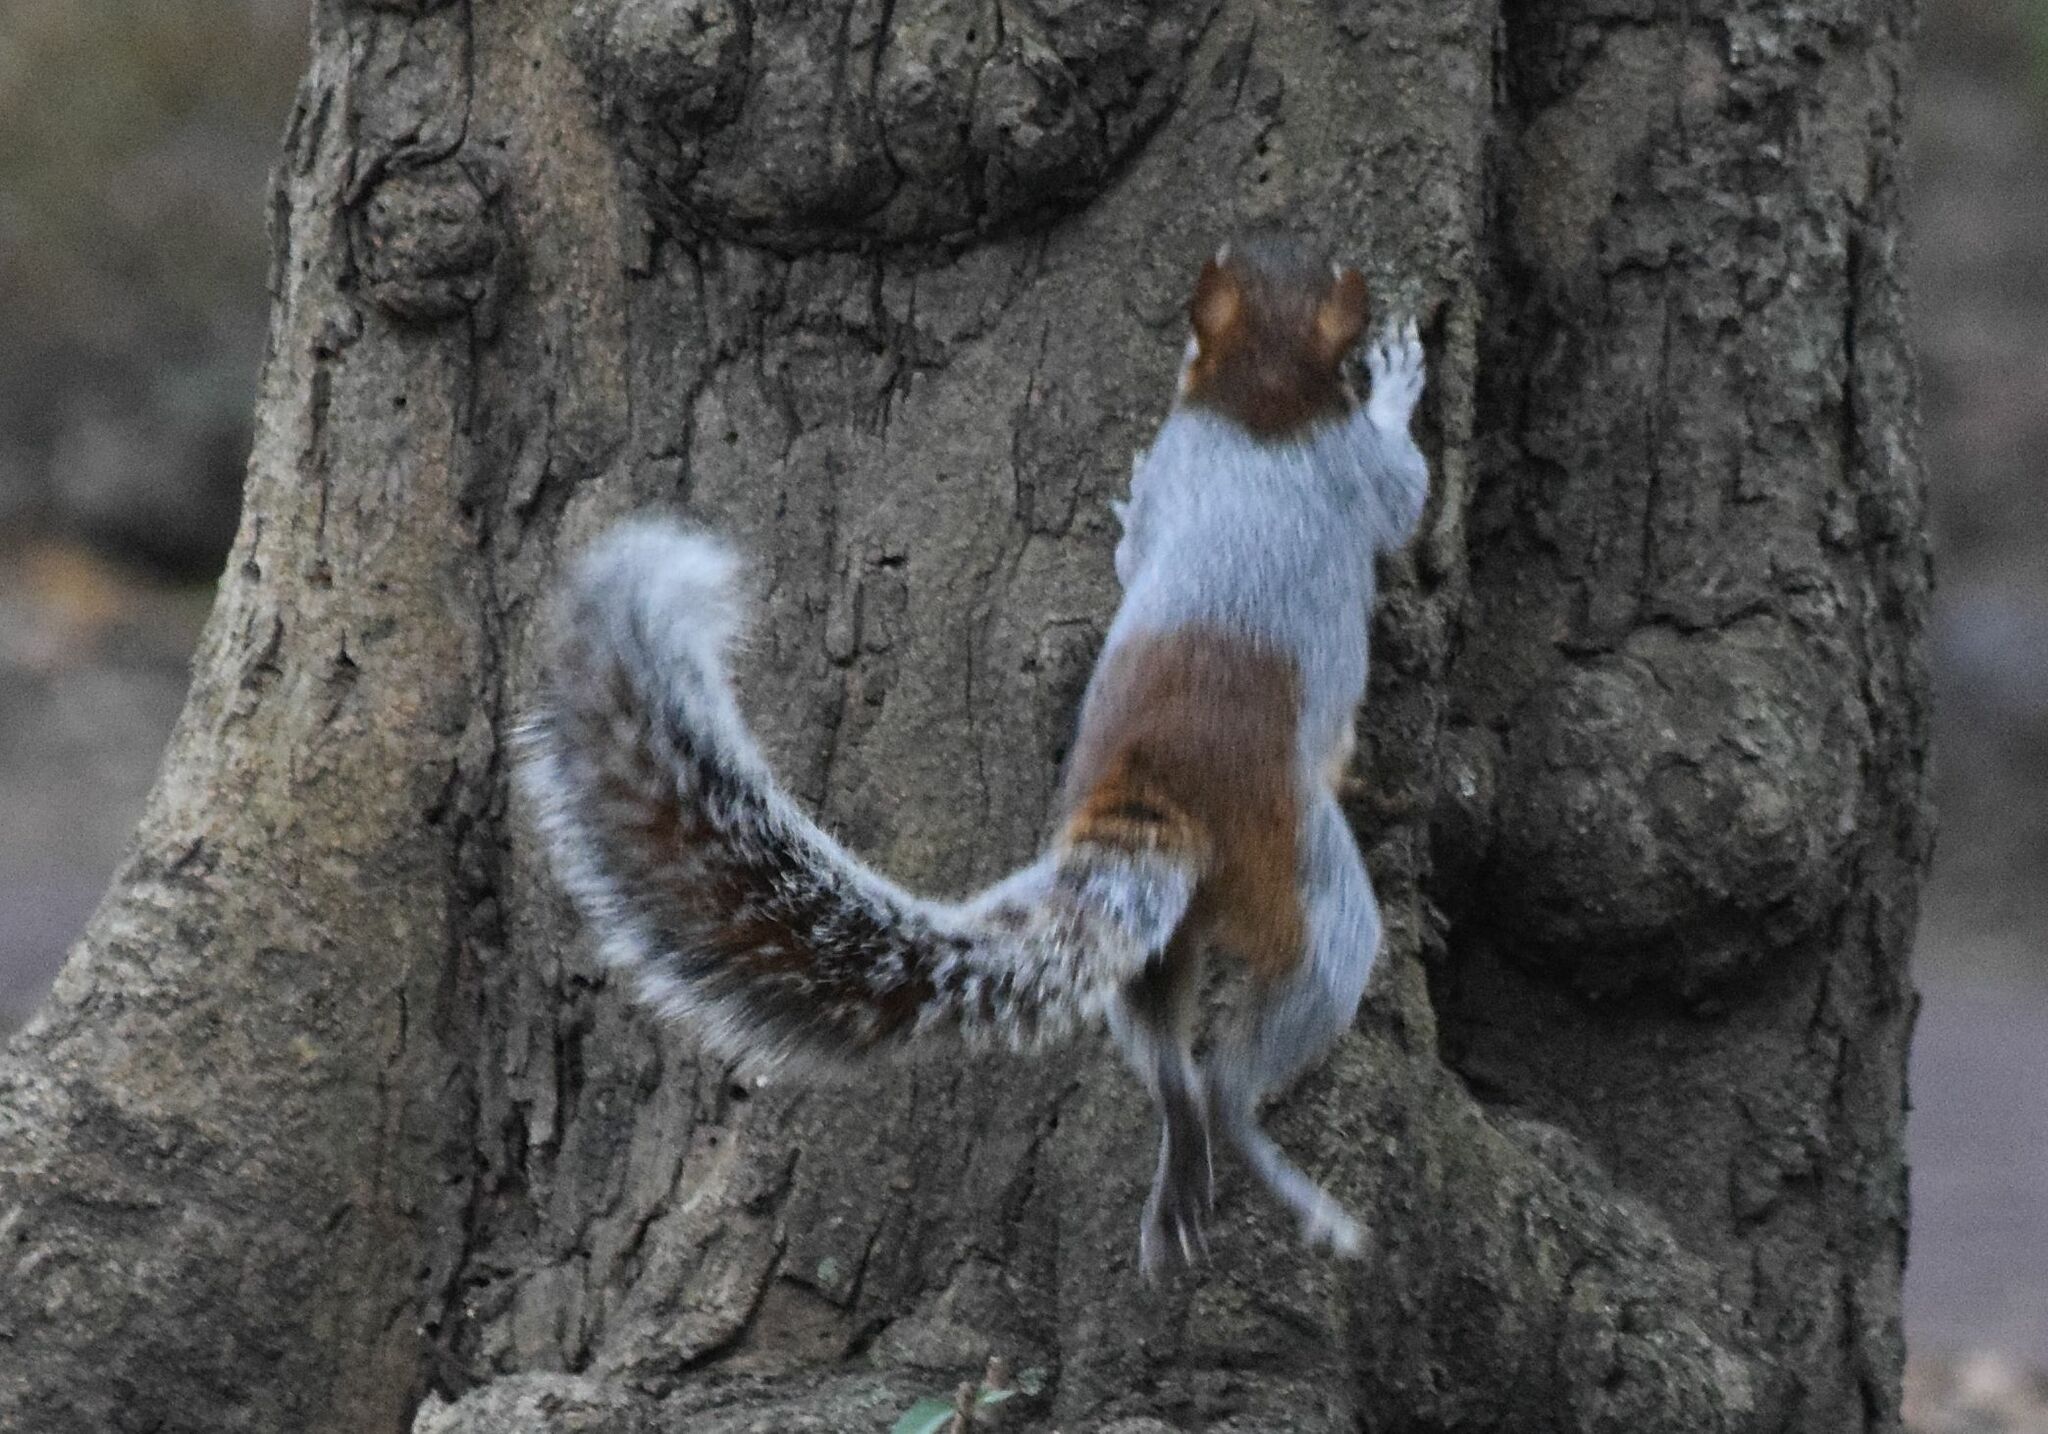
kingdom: Animalia
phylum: Chordata
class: Mammalia
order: Rodentia
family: Sciuridae
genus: Sciurus
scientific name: Sciurus aureogaster
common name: Red-bellied squirrel
